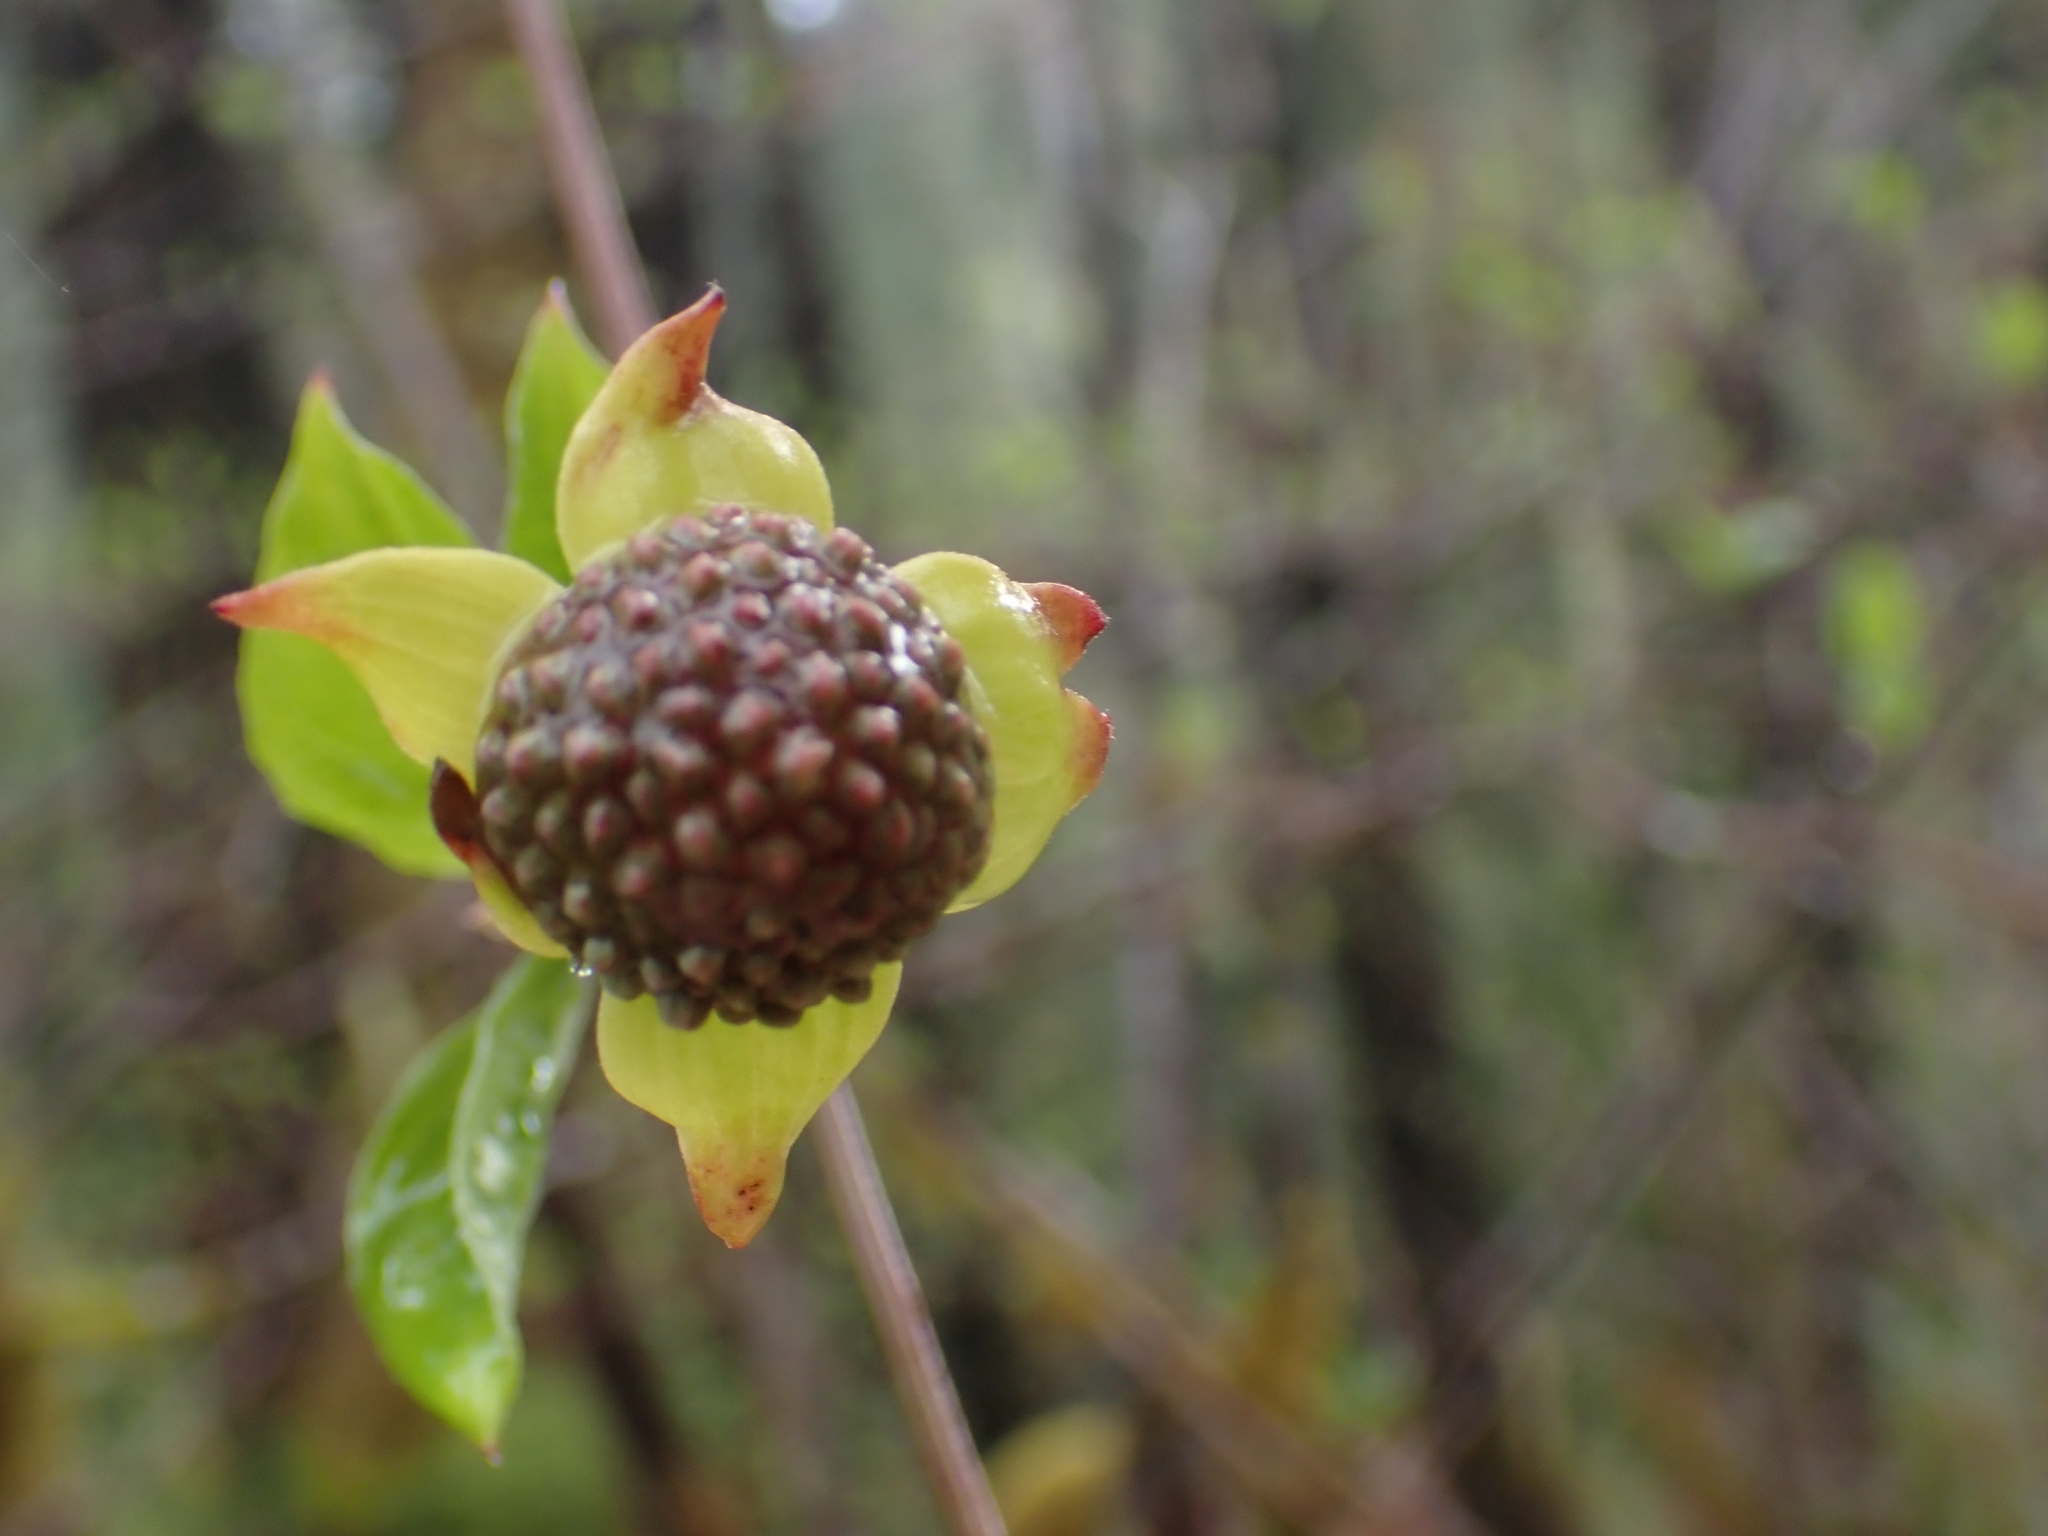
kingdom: Plantae
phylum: Tracheophyta
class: Magnoliopsida
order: Cornales
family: Cornaceae
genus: Cornus
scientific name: Cornus nuttallii
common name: Pacific dogwood
